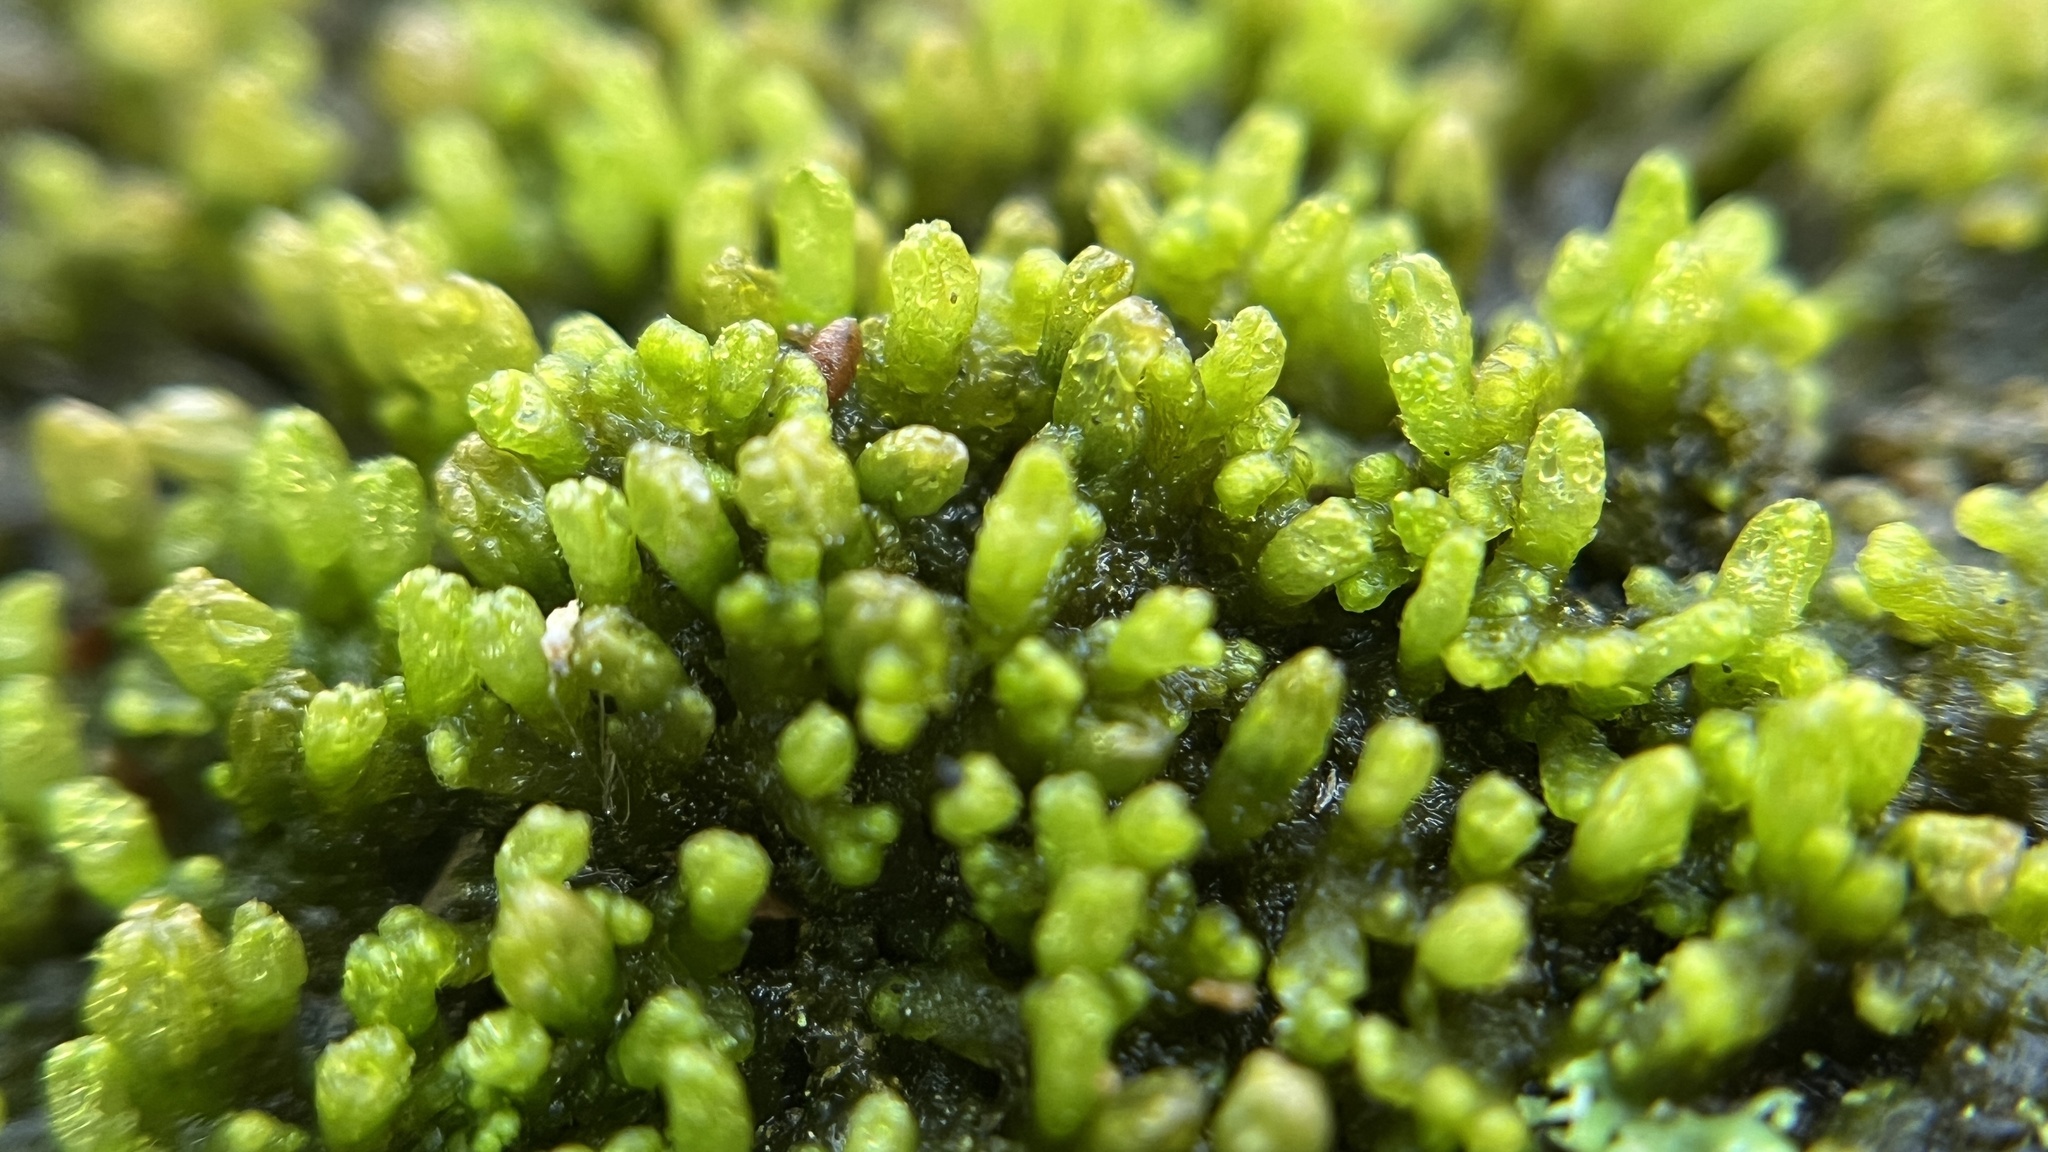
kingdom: Plantae
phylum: Marchantiophyta
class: Jungermanniopsida
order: Ptilidiales
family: Ptilidiaceae
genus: Ptilidium
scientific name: Ptilidium pulcherrimum
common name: Tree fringewort
